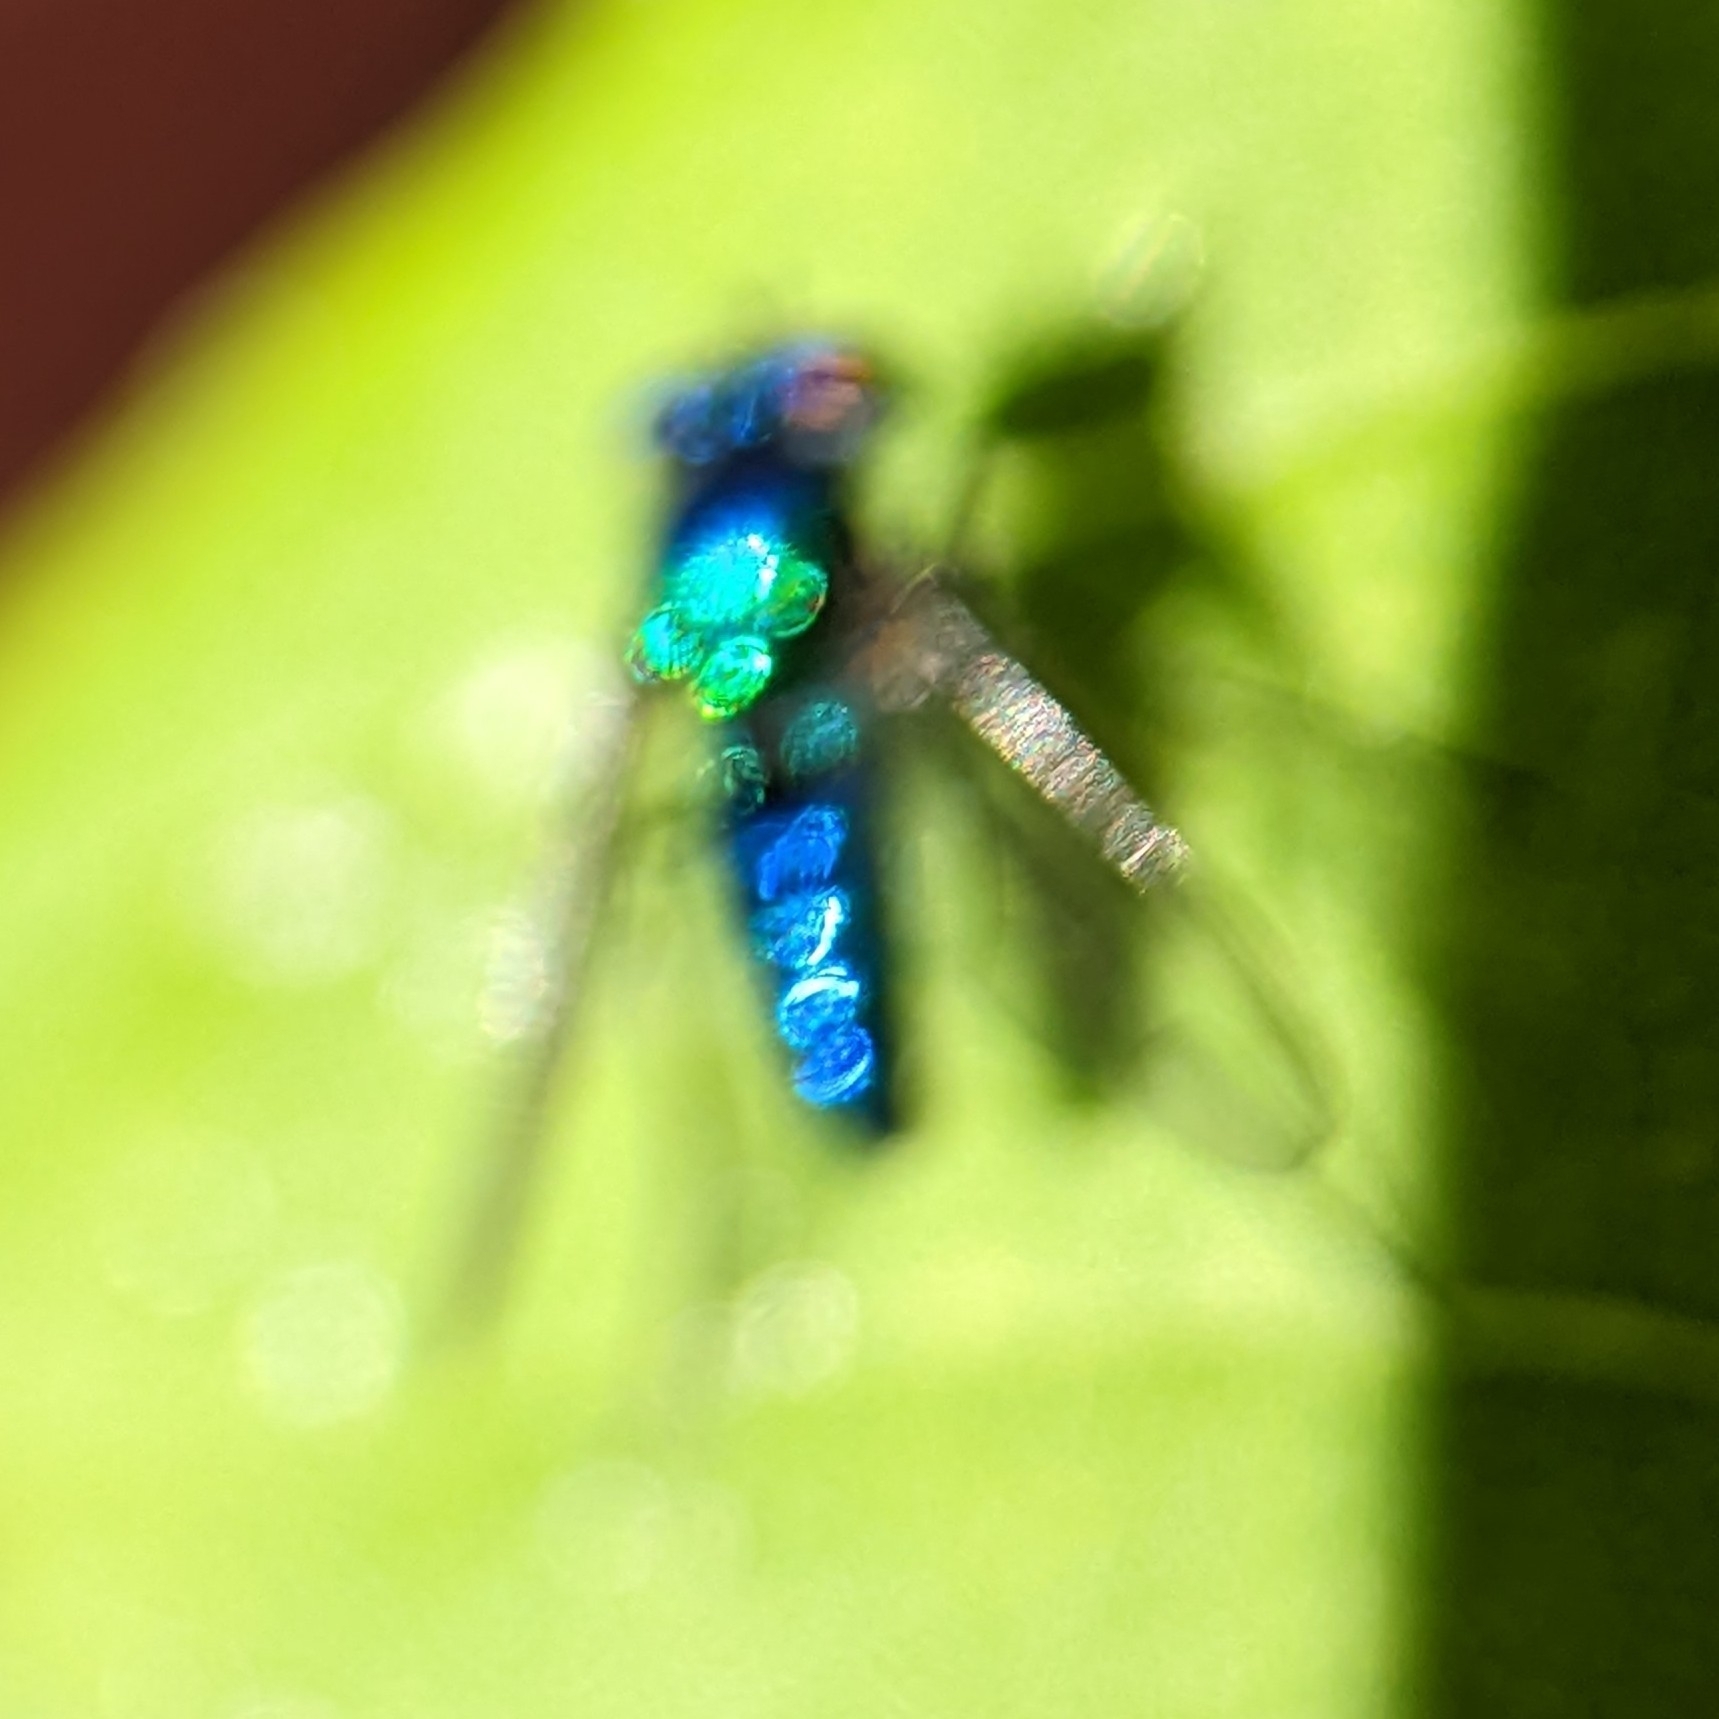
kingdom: Animalia
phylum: Arthropoda
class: Insecta
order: Diptera
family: Dolichopodidae
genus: Condylostylus
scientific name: Condylostylus mundus
